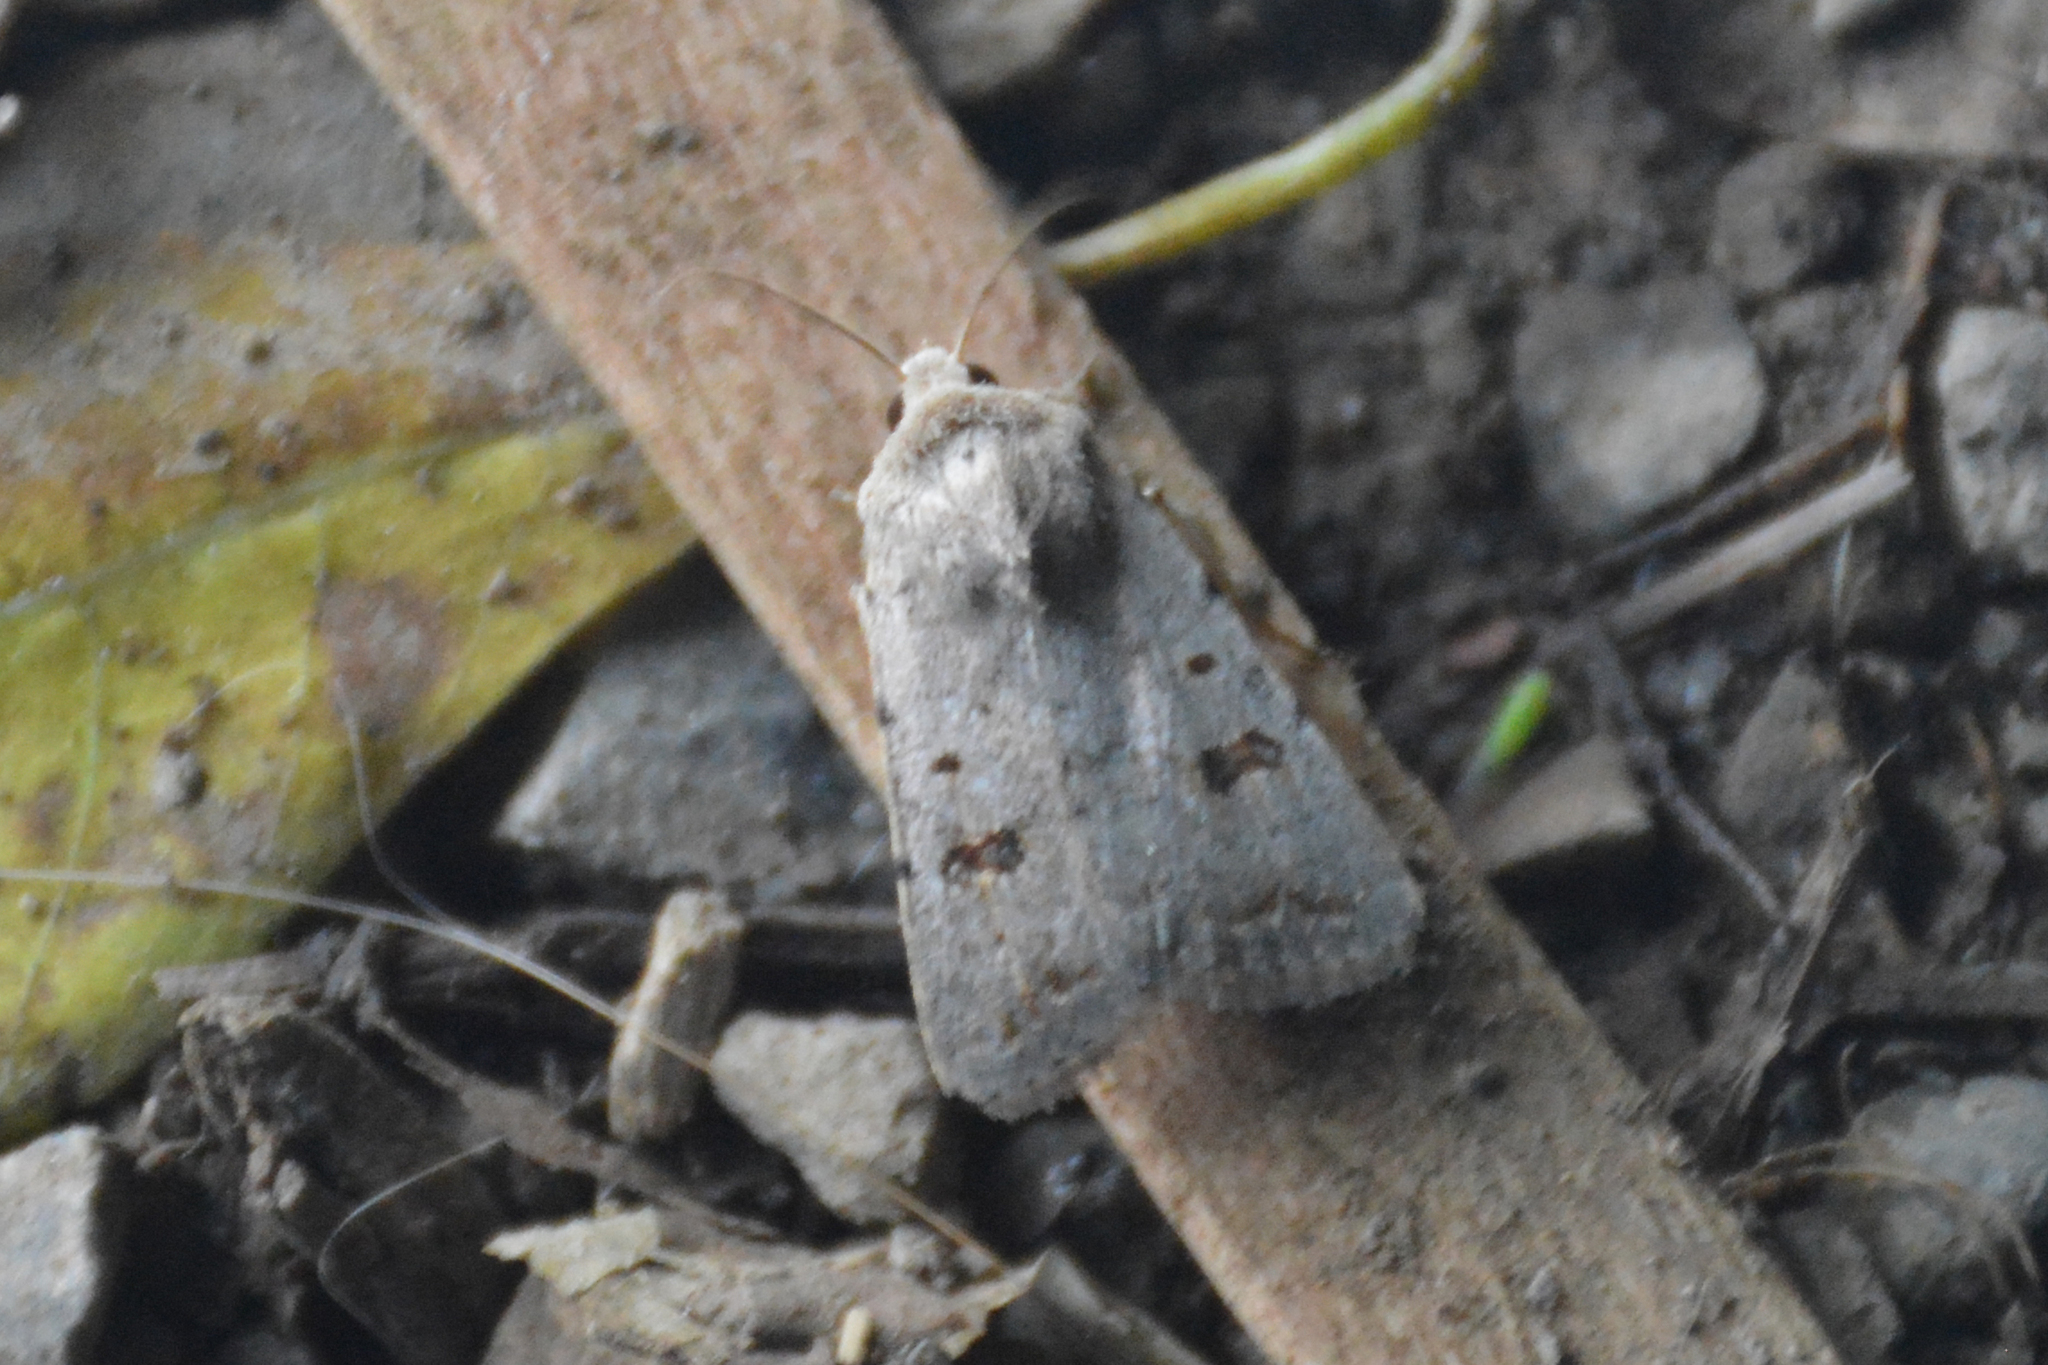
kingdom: Animalia
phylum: Arthropoda
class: Insecta
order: Lepidoptera
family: Noctuidae
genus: Caradrina
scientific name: Caradrina kadenii
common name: Clancy's rustic
